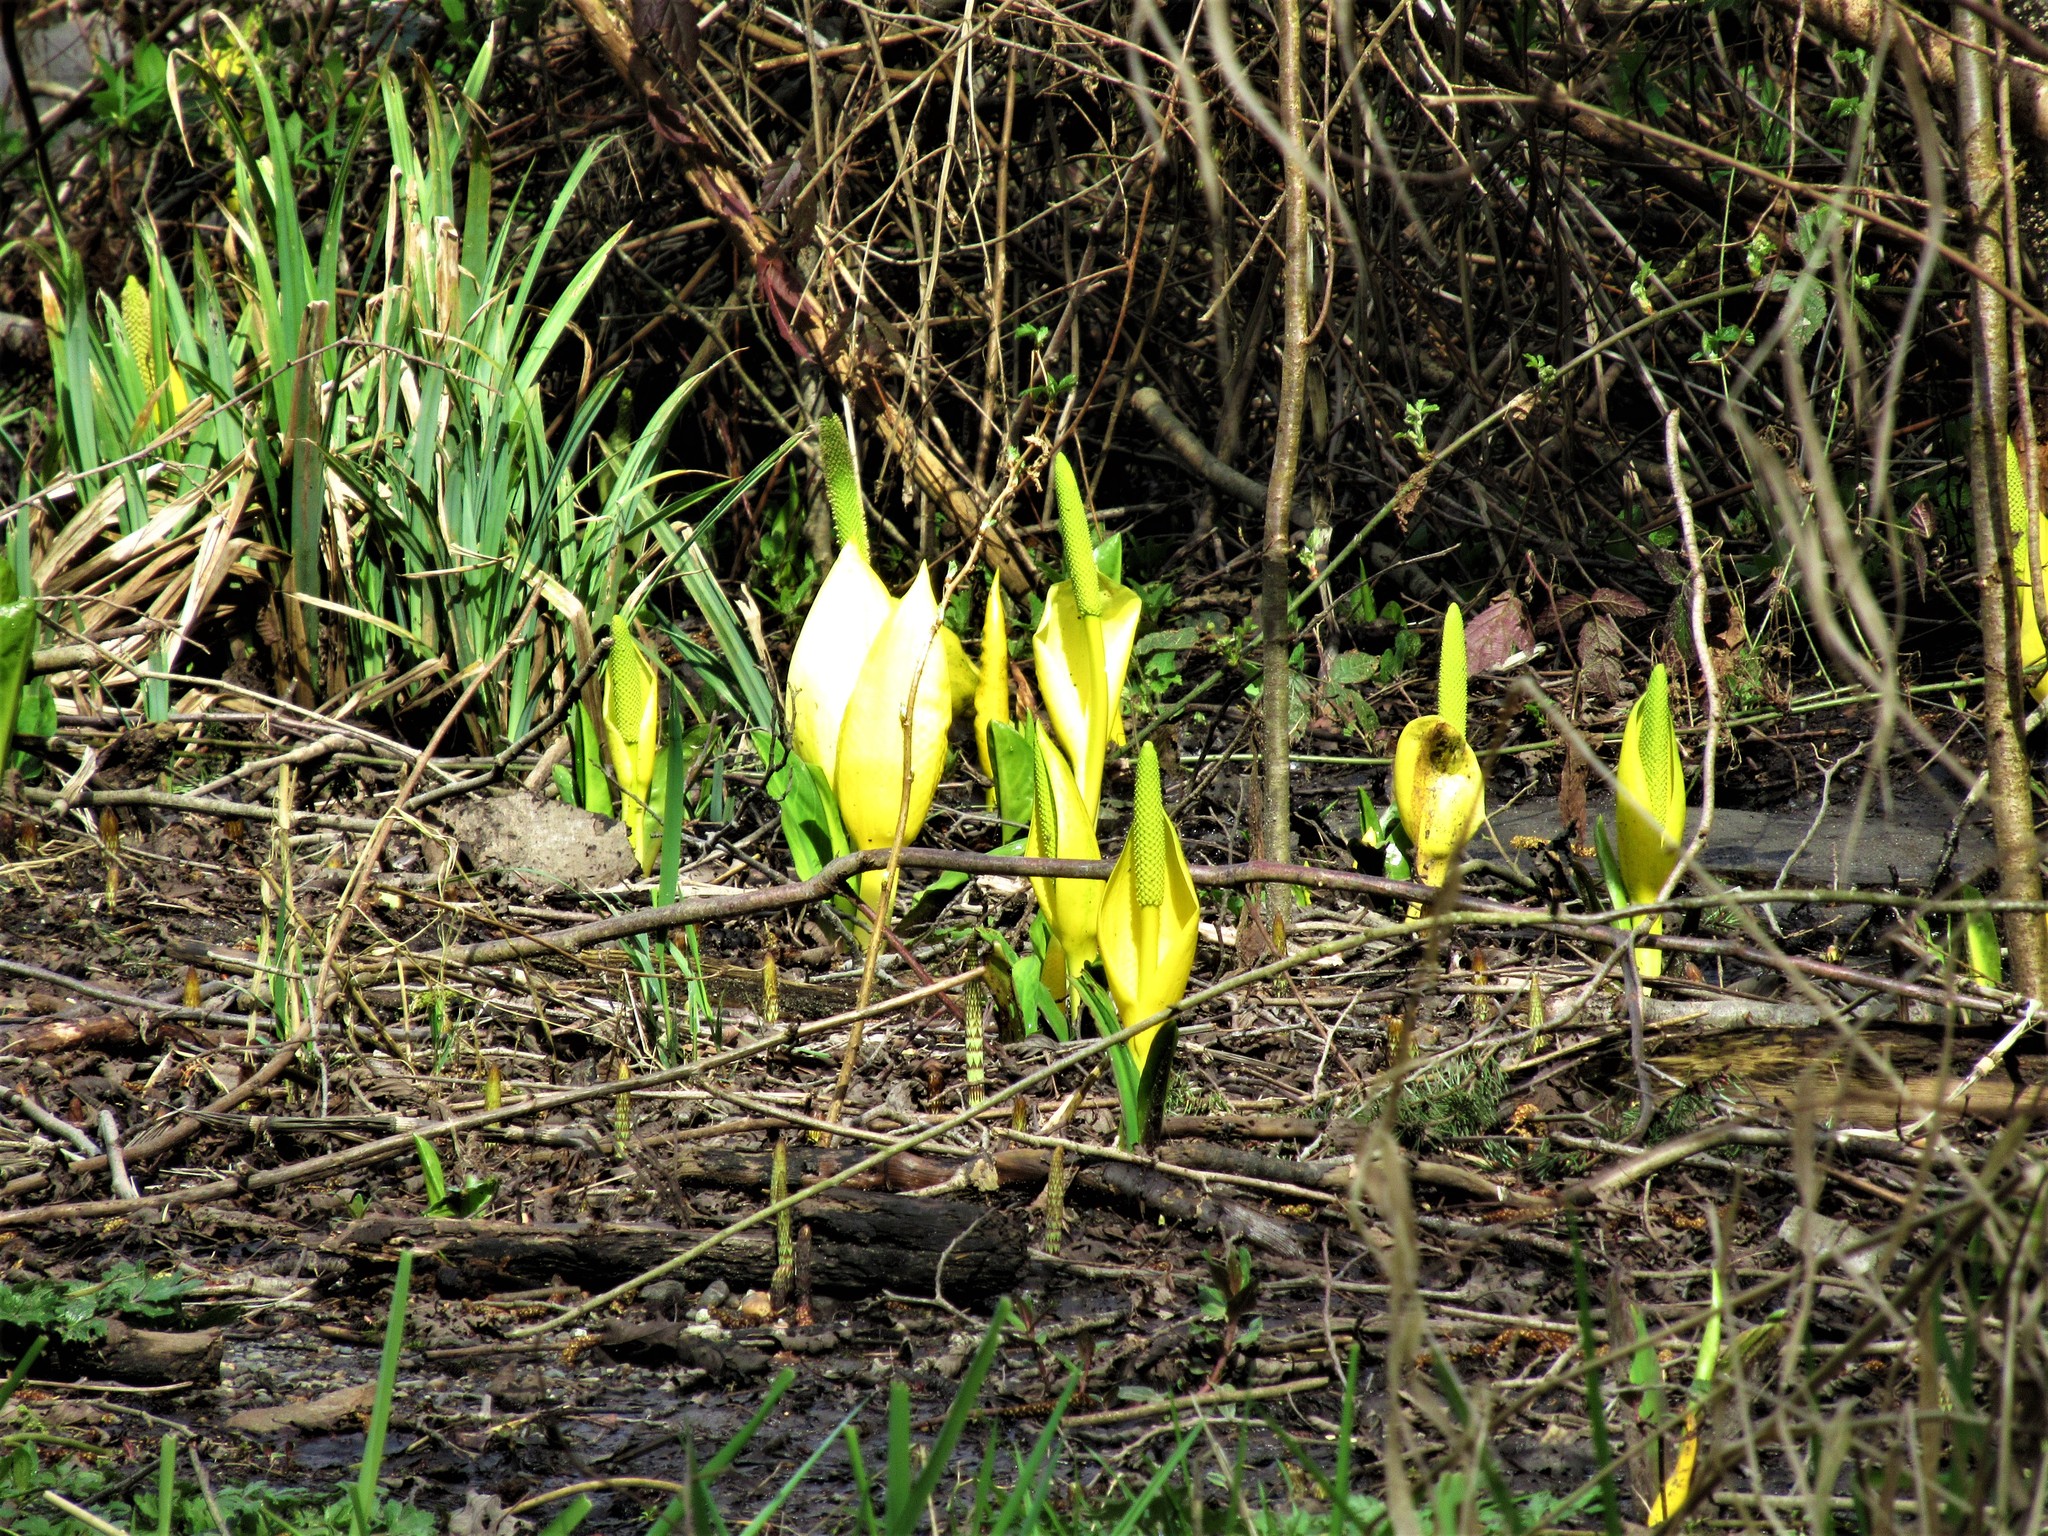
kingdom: Plantae
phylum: Tracheophyta
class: Liliopsida
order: Alismatales
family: Araceae
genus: Lysichiton
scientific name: Lysichiton americanus
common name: American skunk cabbage
